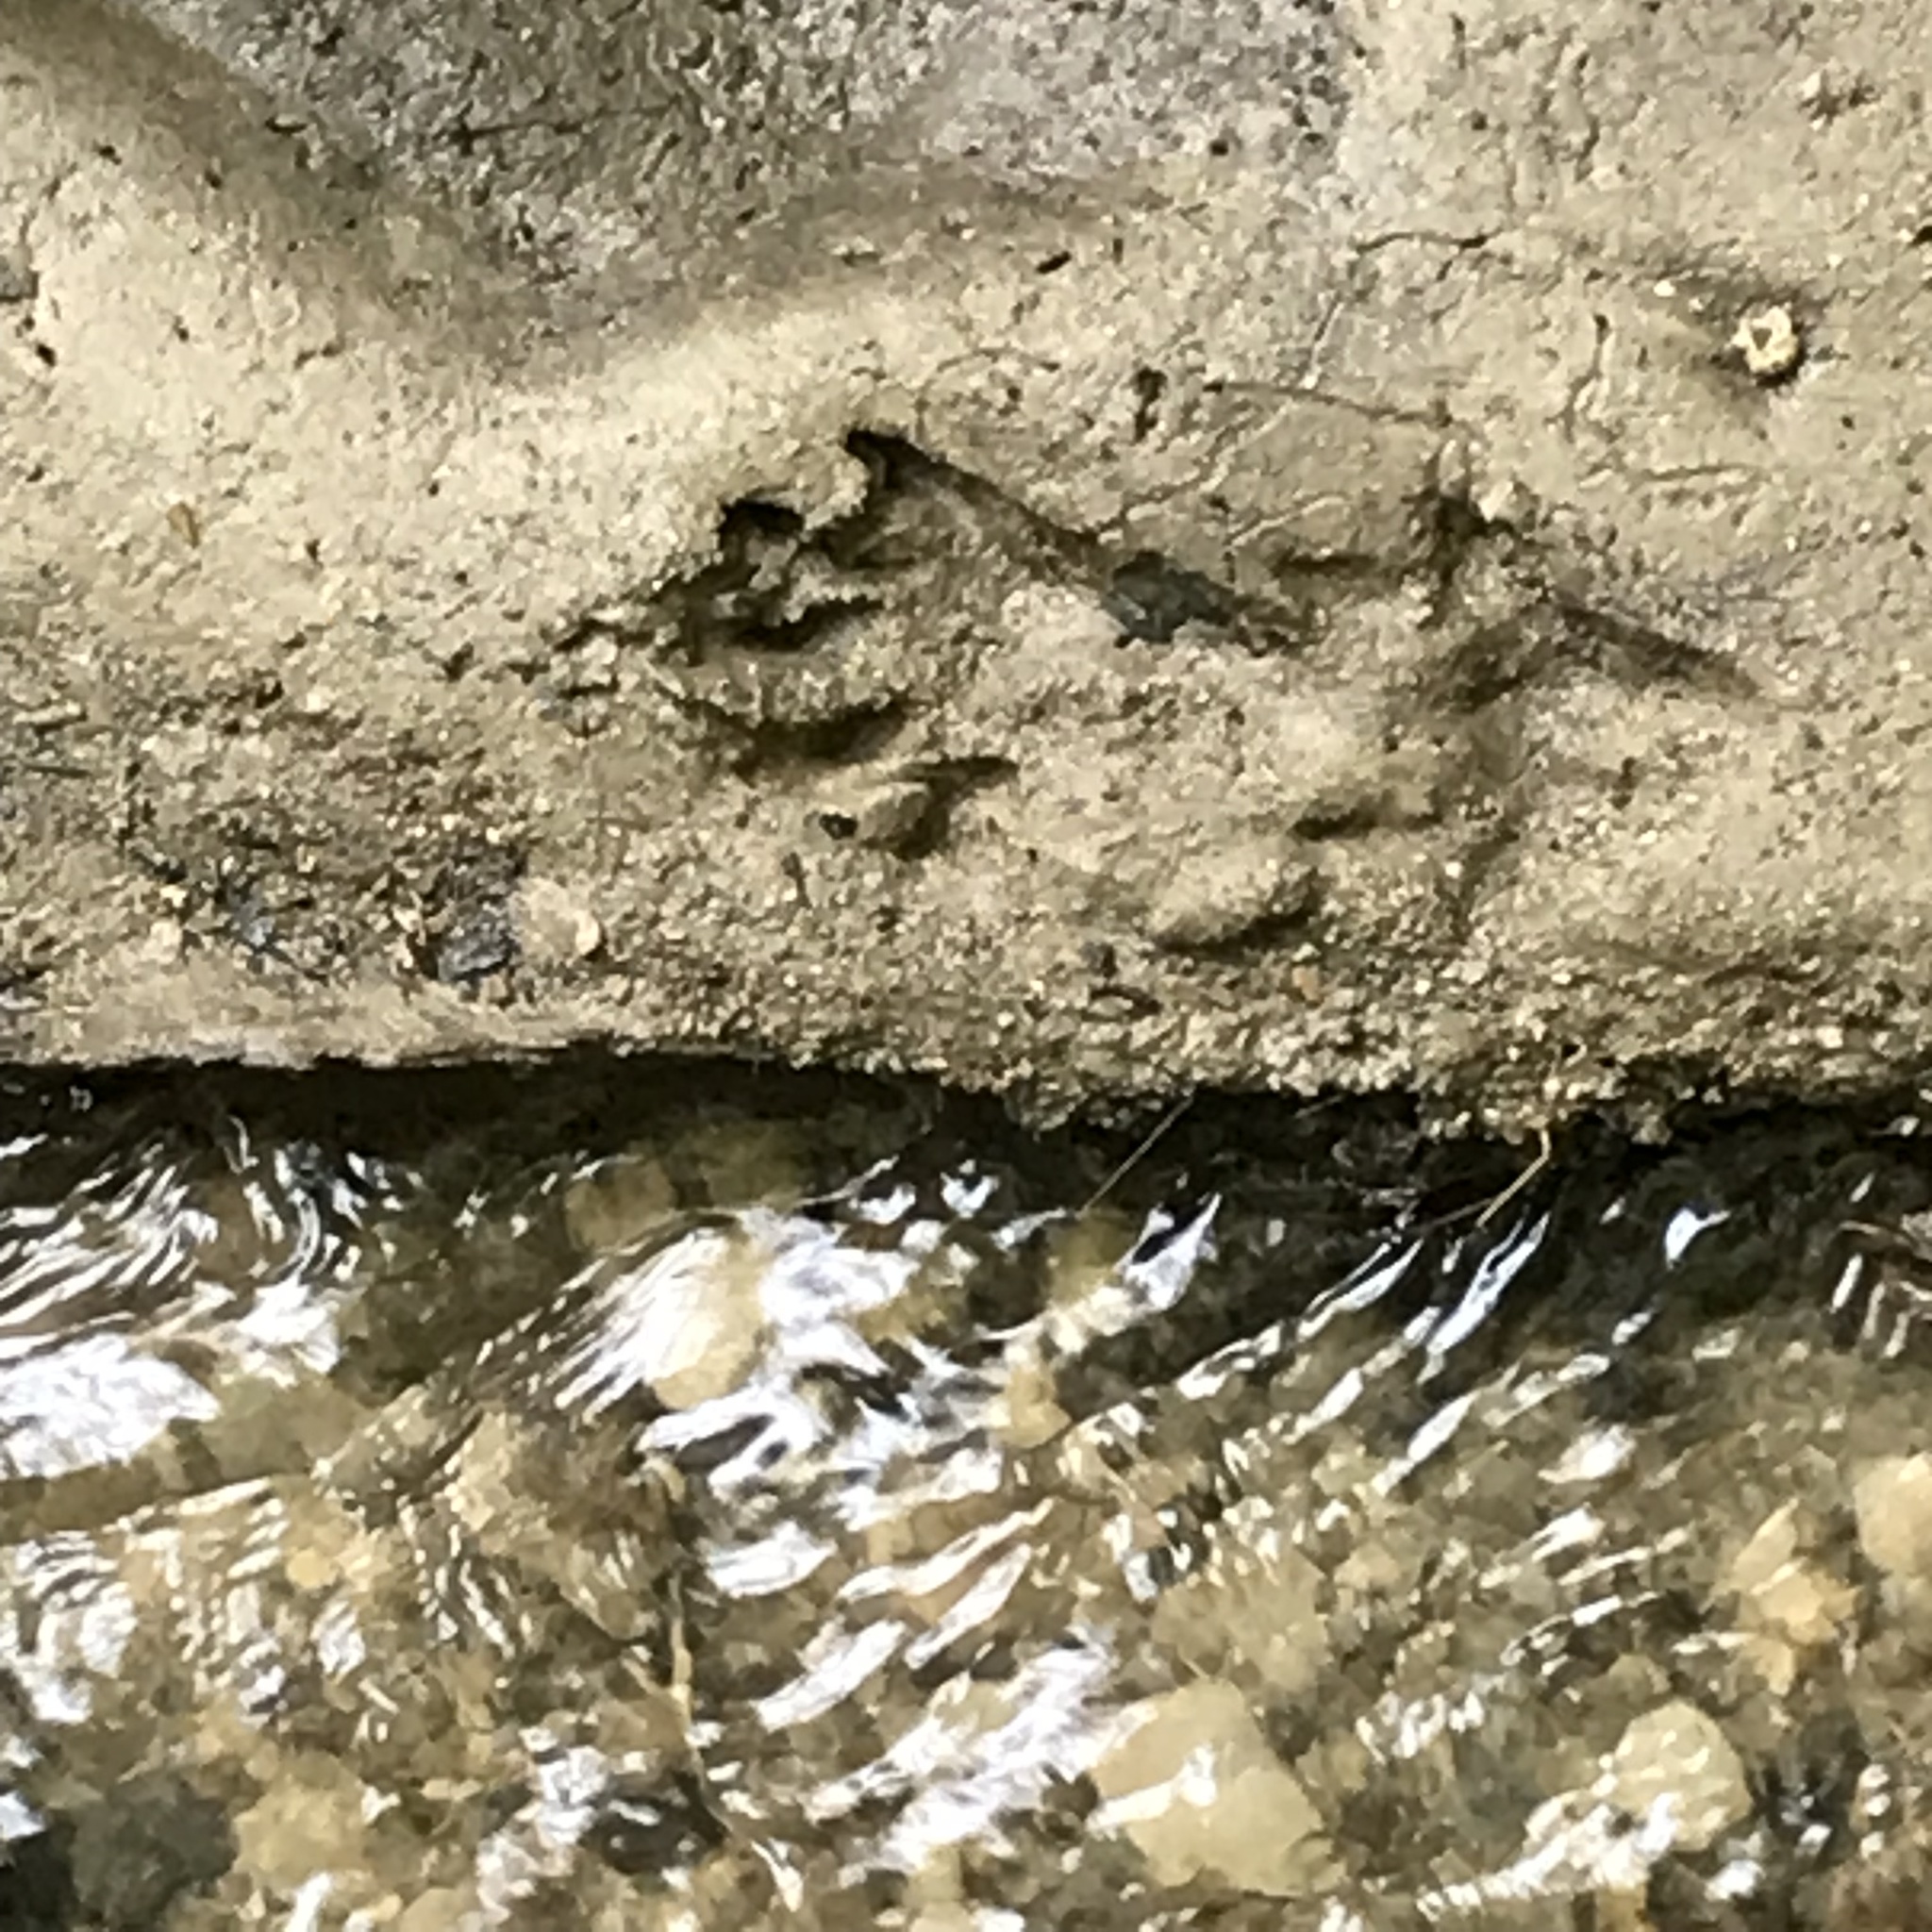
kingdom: Animalia
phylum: Chordata
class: Mammalia
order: Carnivora
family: Procyonidae
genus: Procyon
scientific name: Procyon lotor
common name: Raccoon
